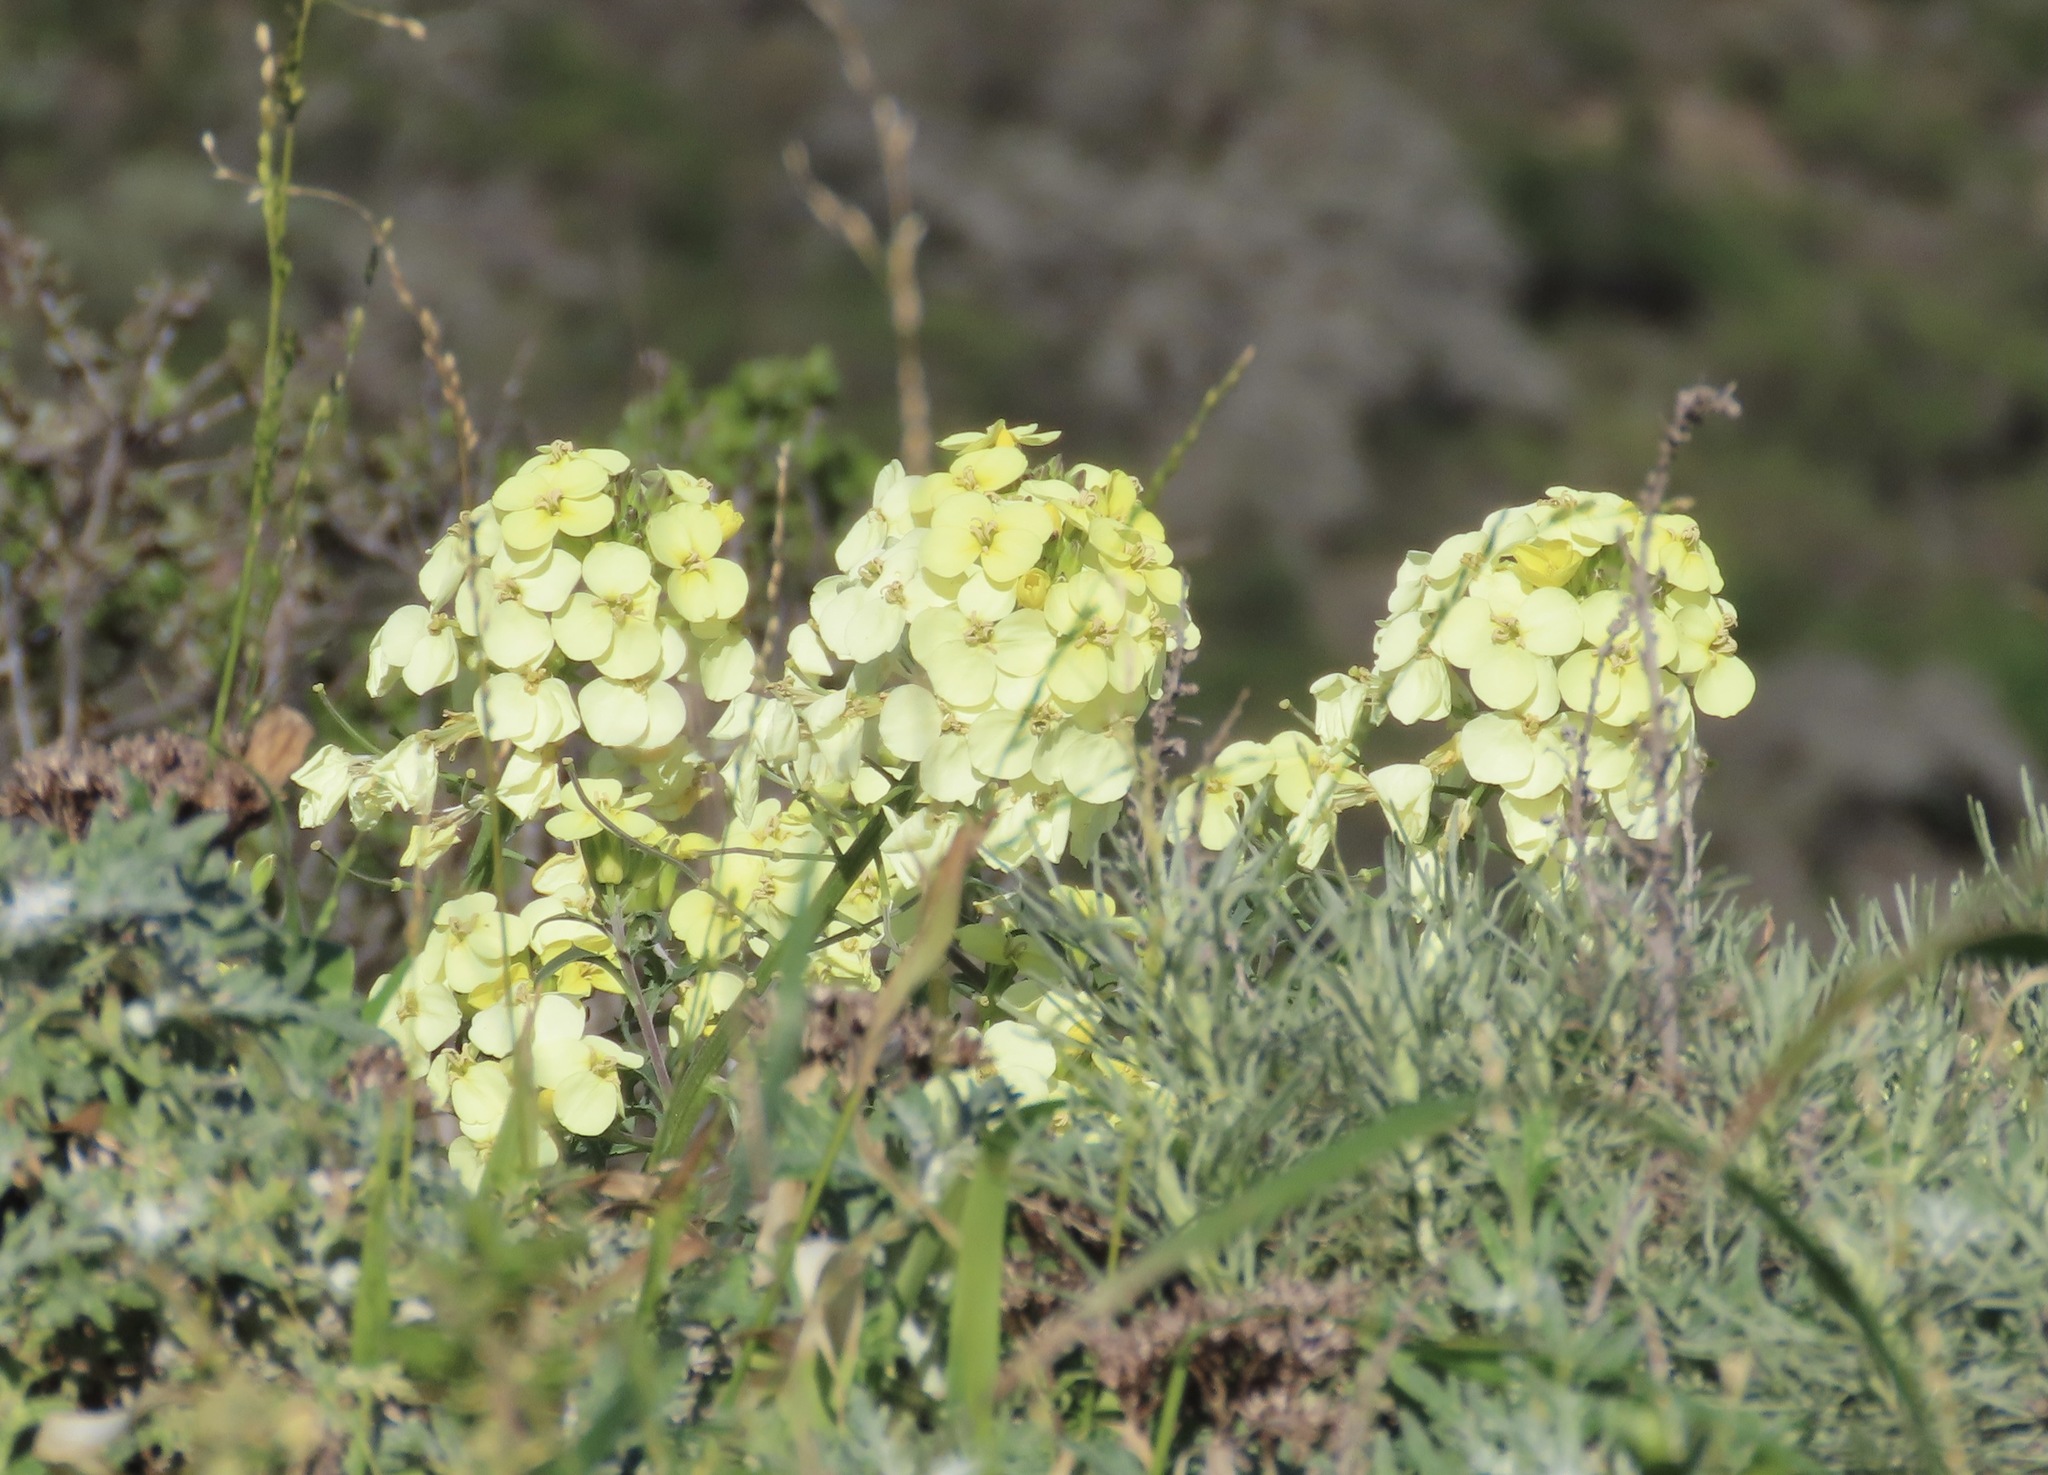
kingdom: Plantae
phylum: Tracheophyta
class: Magnoliopsida
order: Brassicales
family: Brassicaceae
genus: Erysimum
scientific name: Erysimum franciscanum
